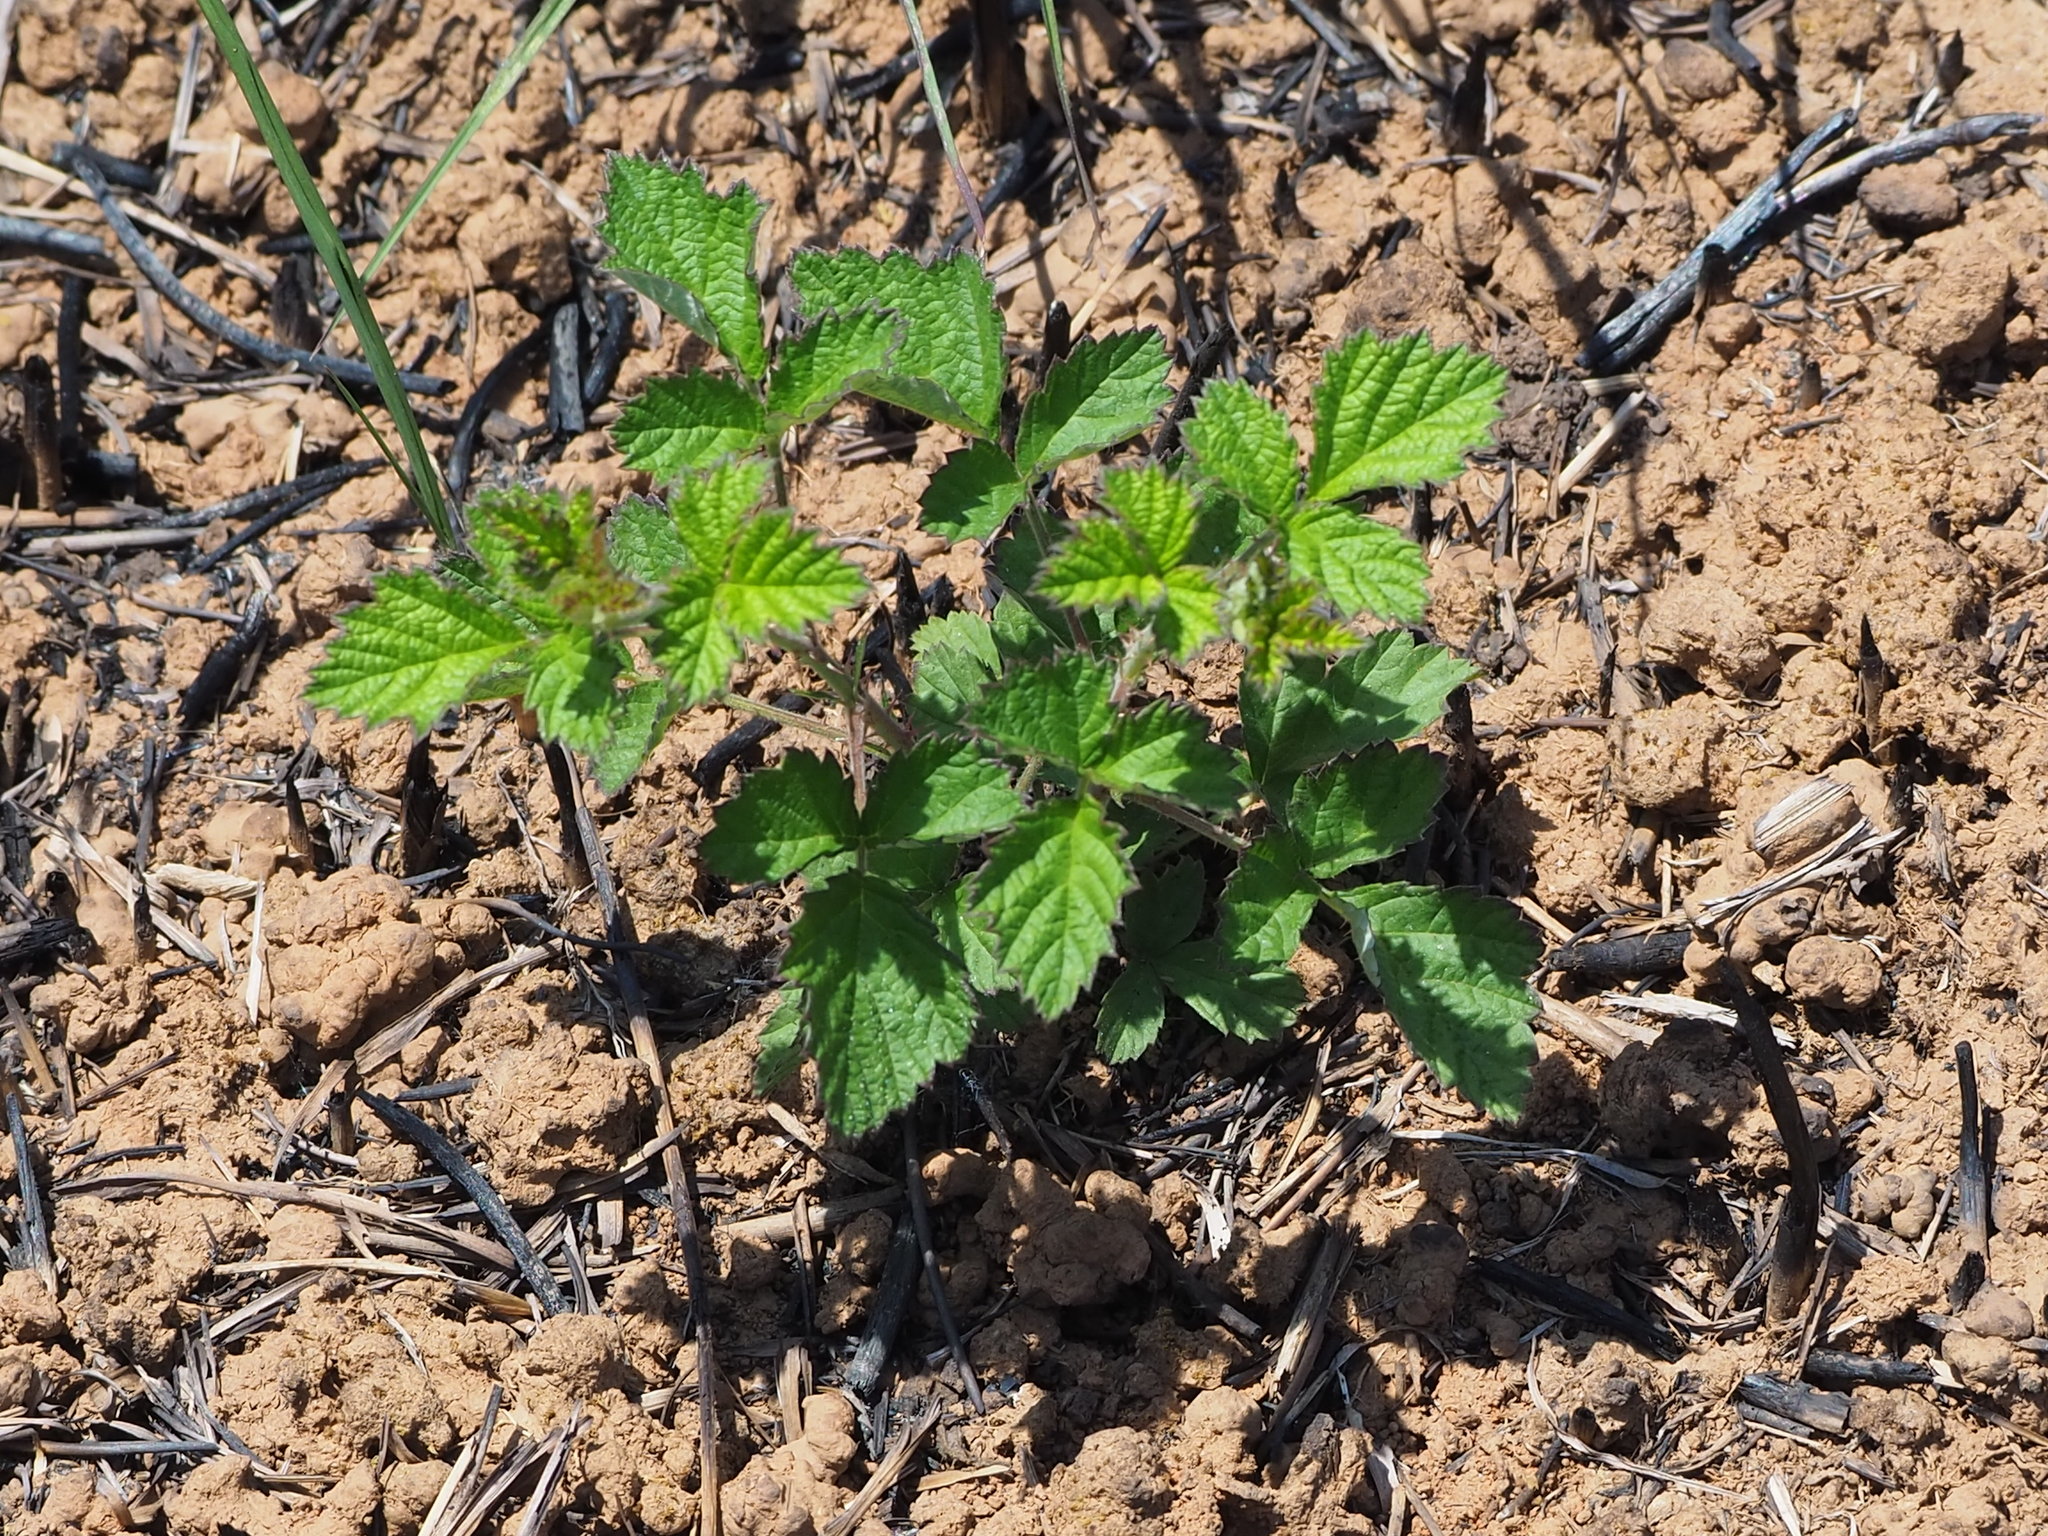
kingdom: Plantae
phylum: Tracheophyta
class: Magnoliopsida
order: Rosales
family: Rosaceae
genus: Rubus
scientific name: Rubus parvifolius
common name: Threeleaf blackberry
